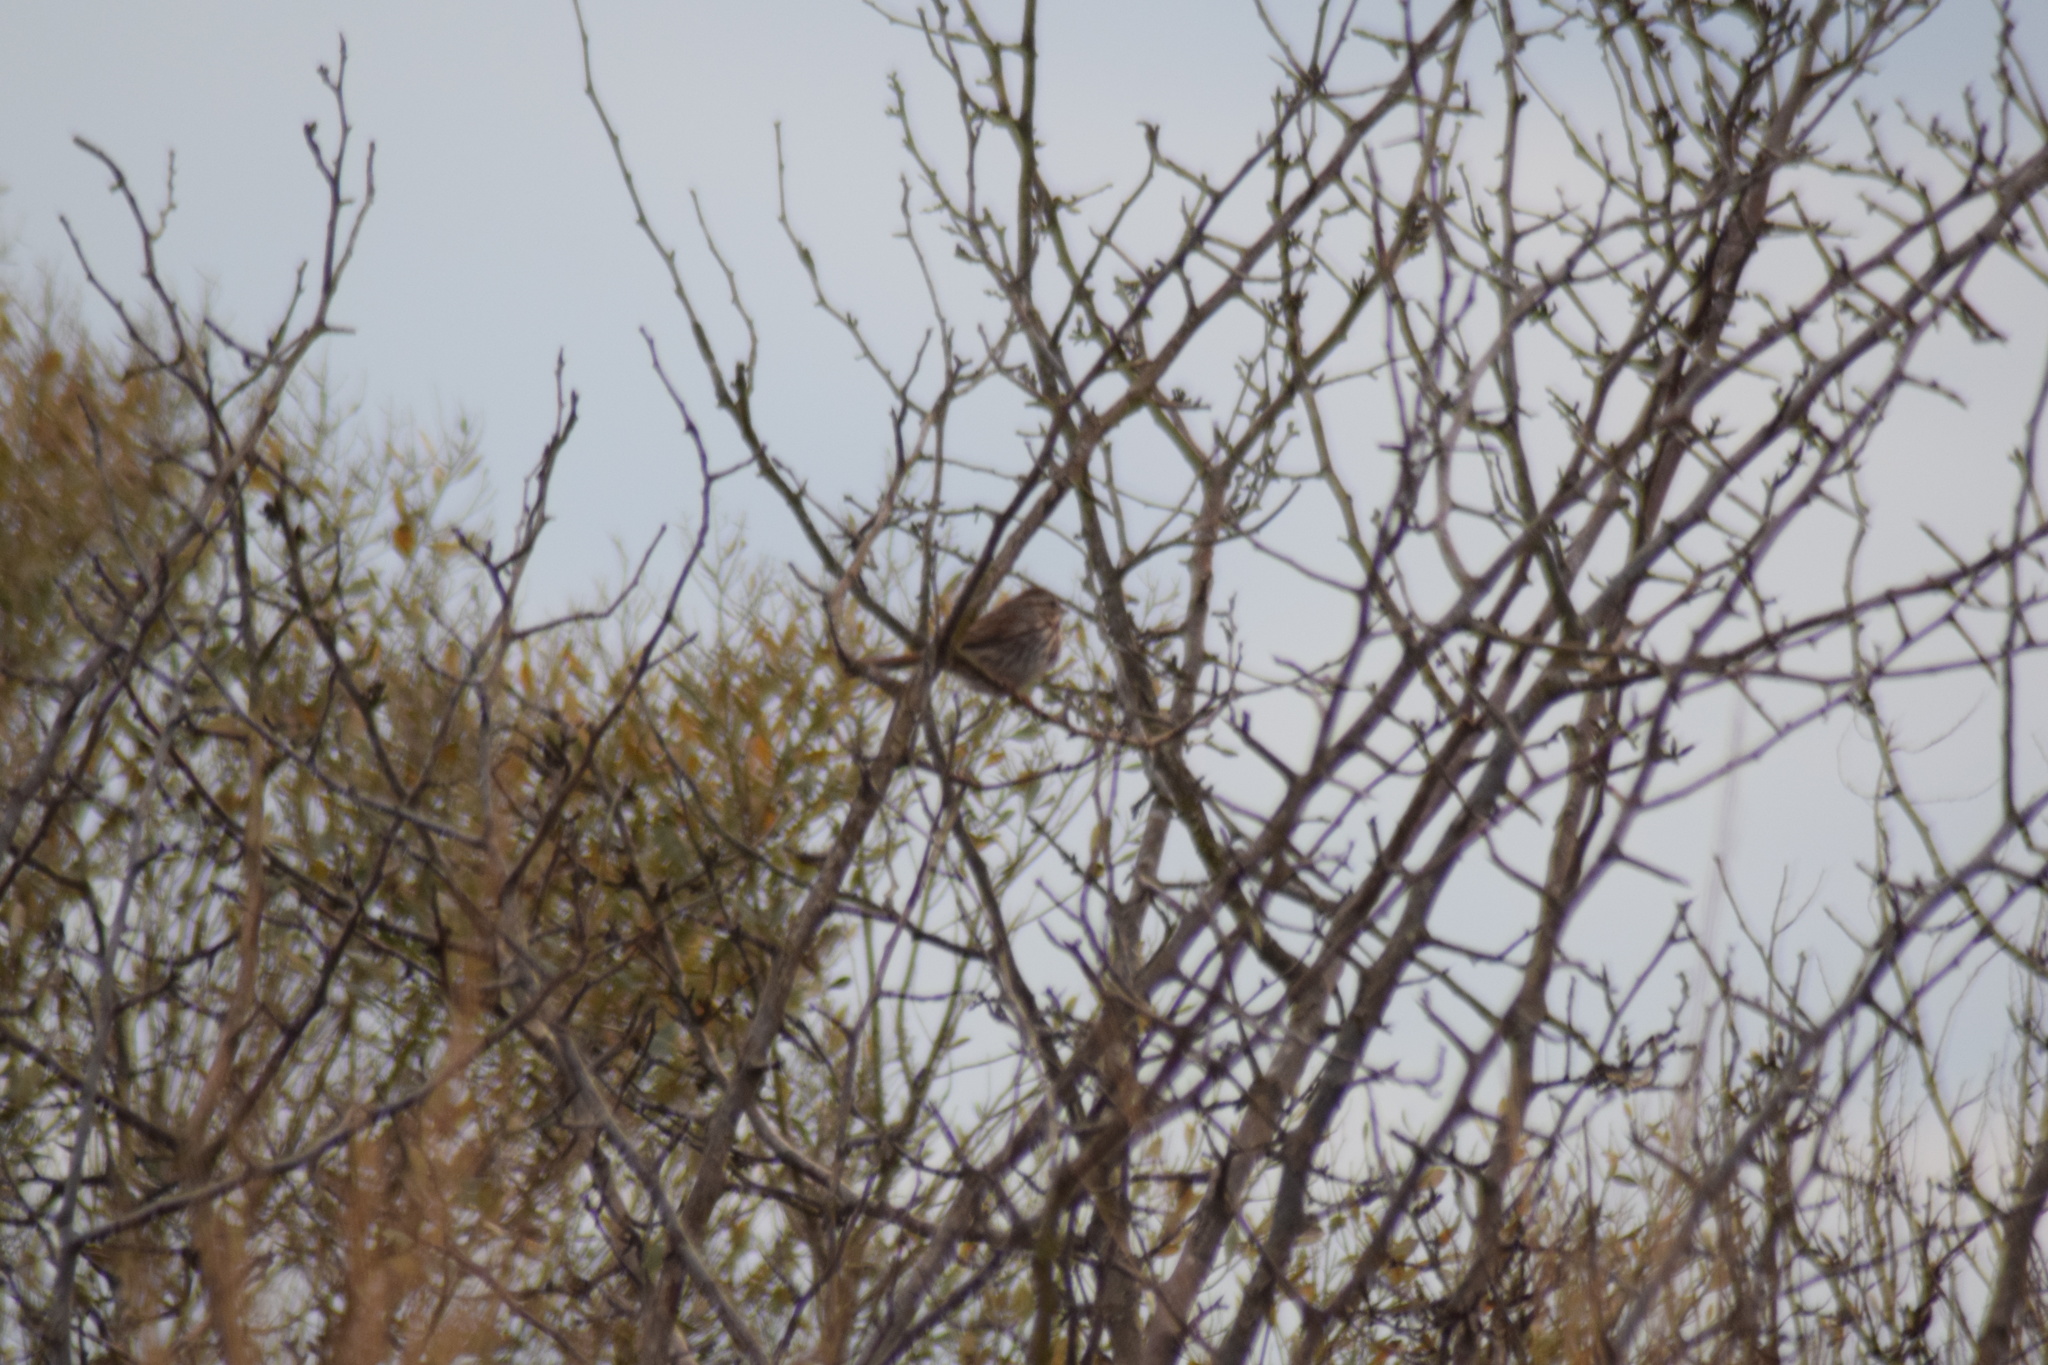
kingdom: Animalia
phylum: Chordata
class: Aves
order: Passeriformes
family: Passerellidae
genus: Melospiza
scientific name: Melospiza melodia
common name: Song sparrow
